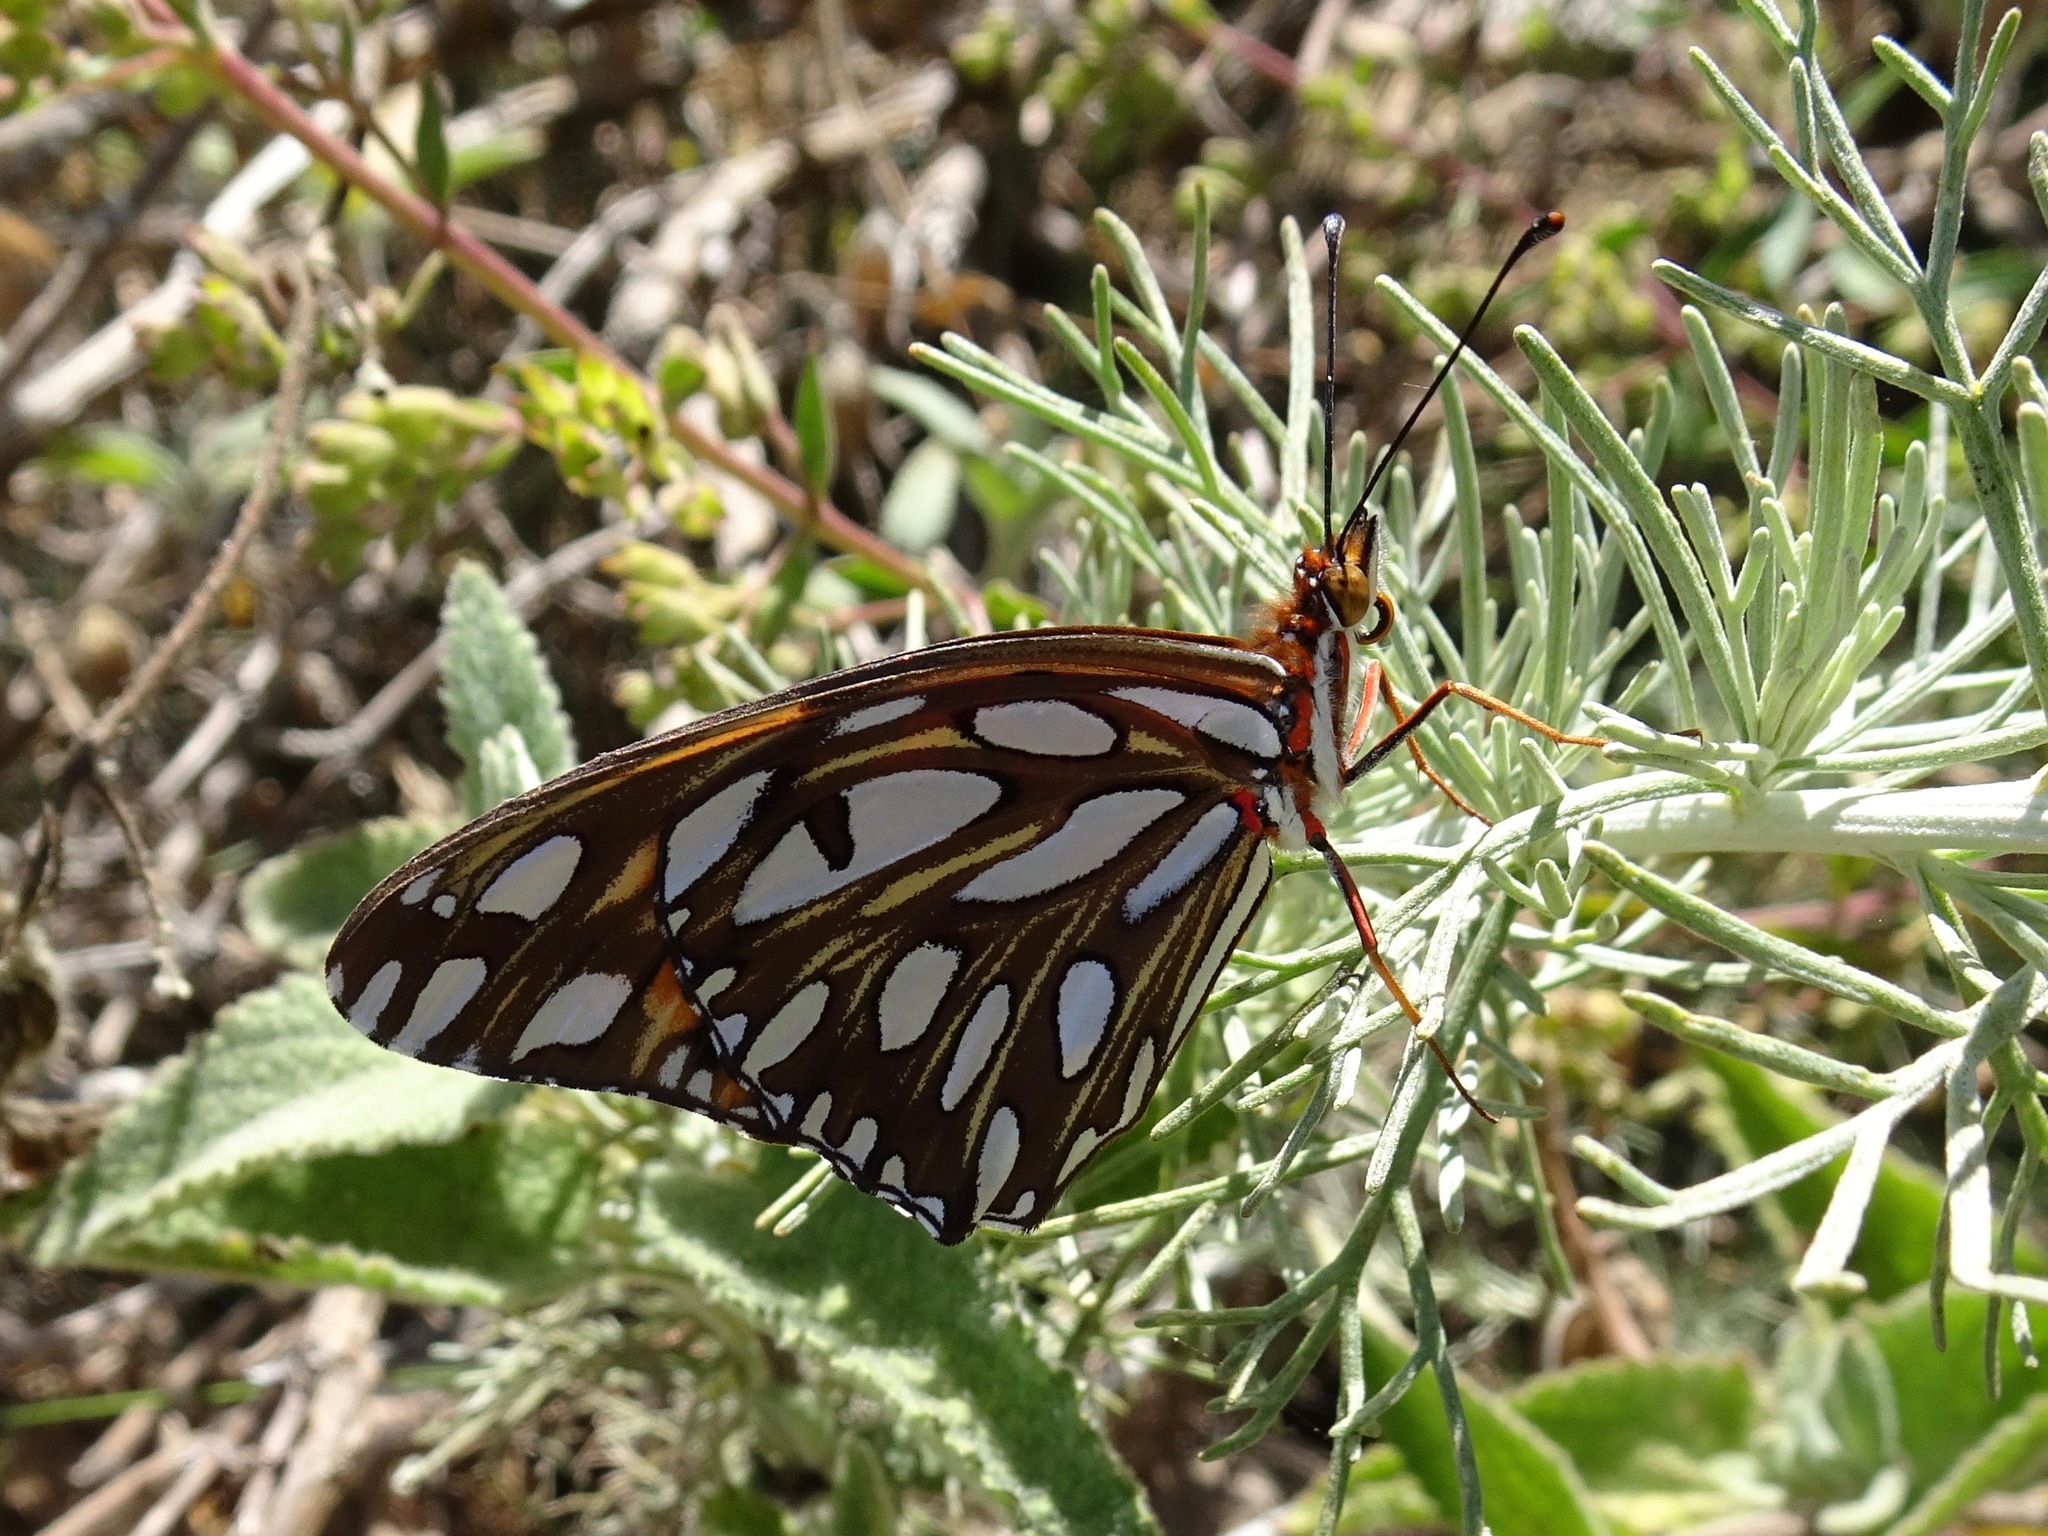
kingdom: Animalia
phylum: Arthropoda
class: Insecta
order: Lepidoptera
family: Nymphalidae
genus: Dione
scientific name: Dione vanillae
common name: Gulf fritillary
